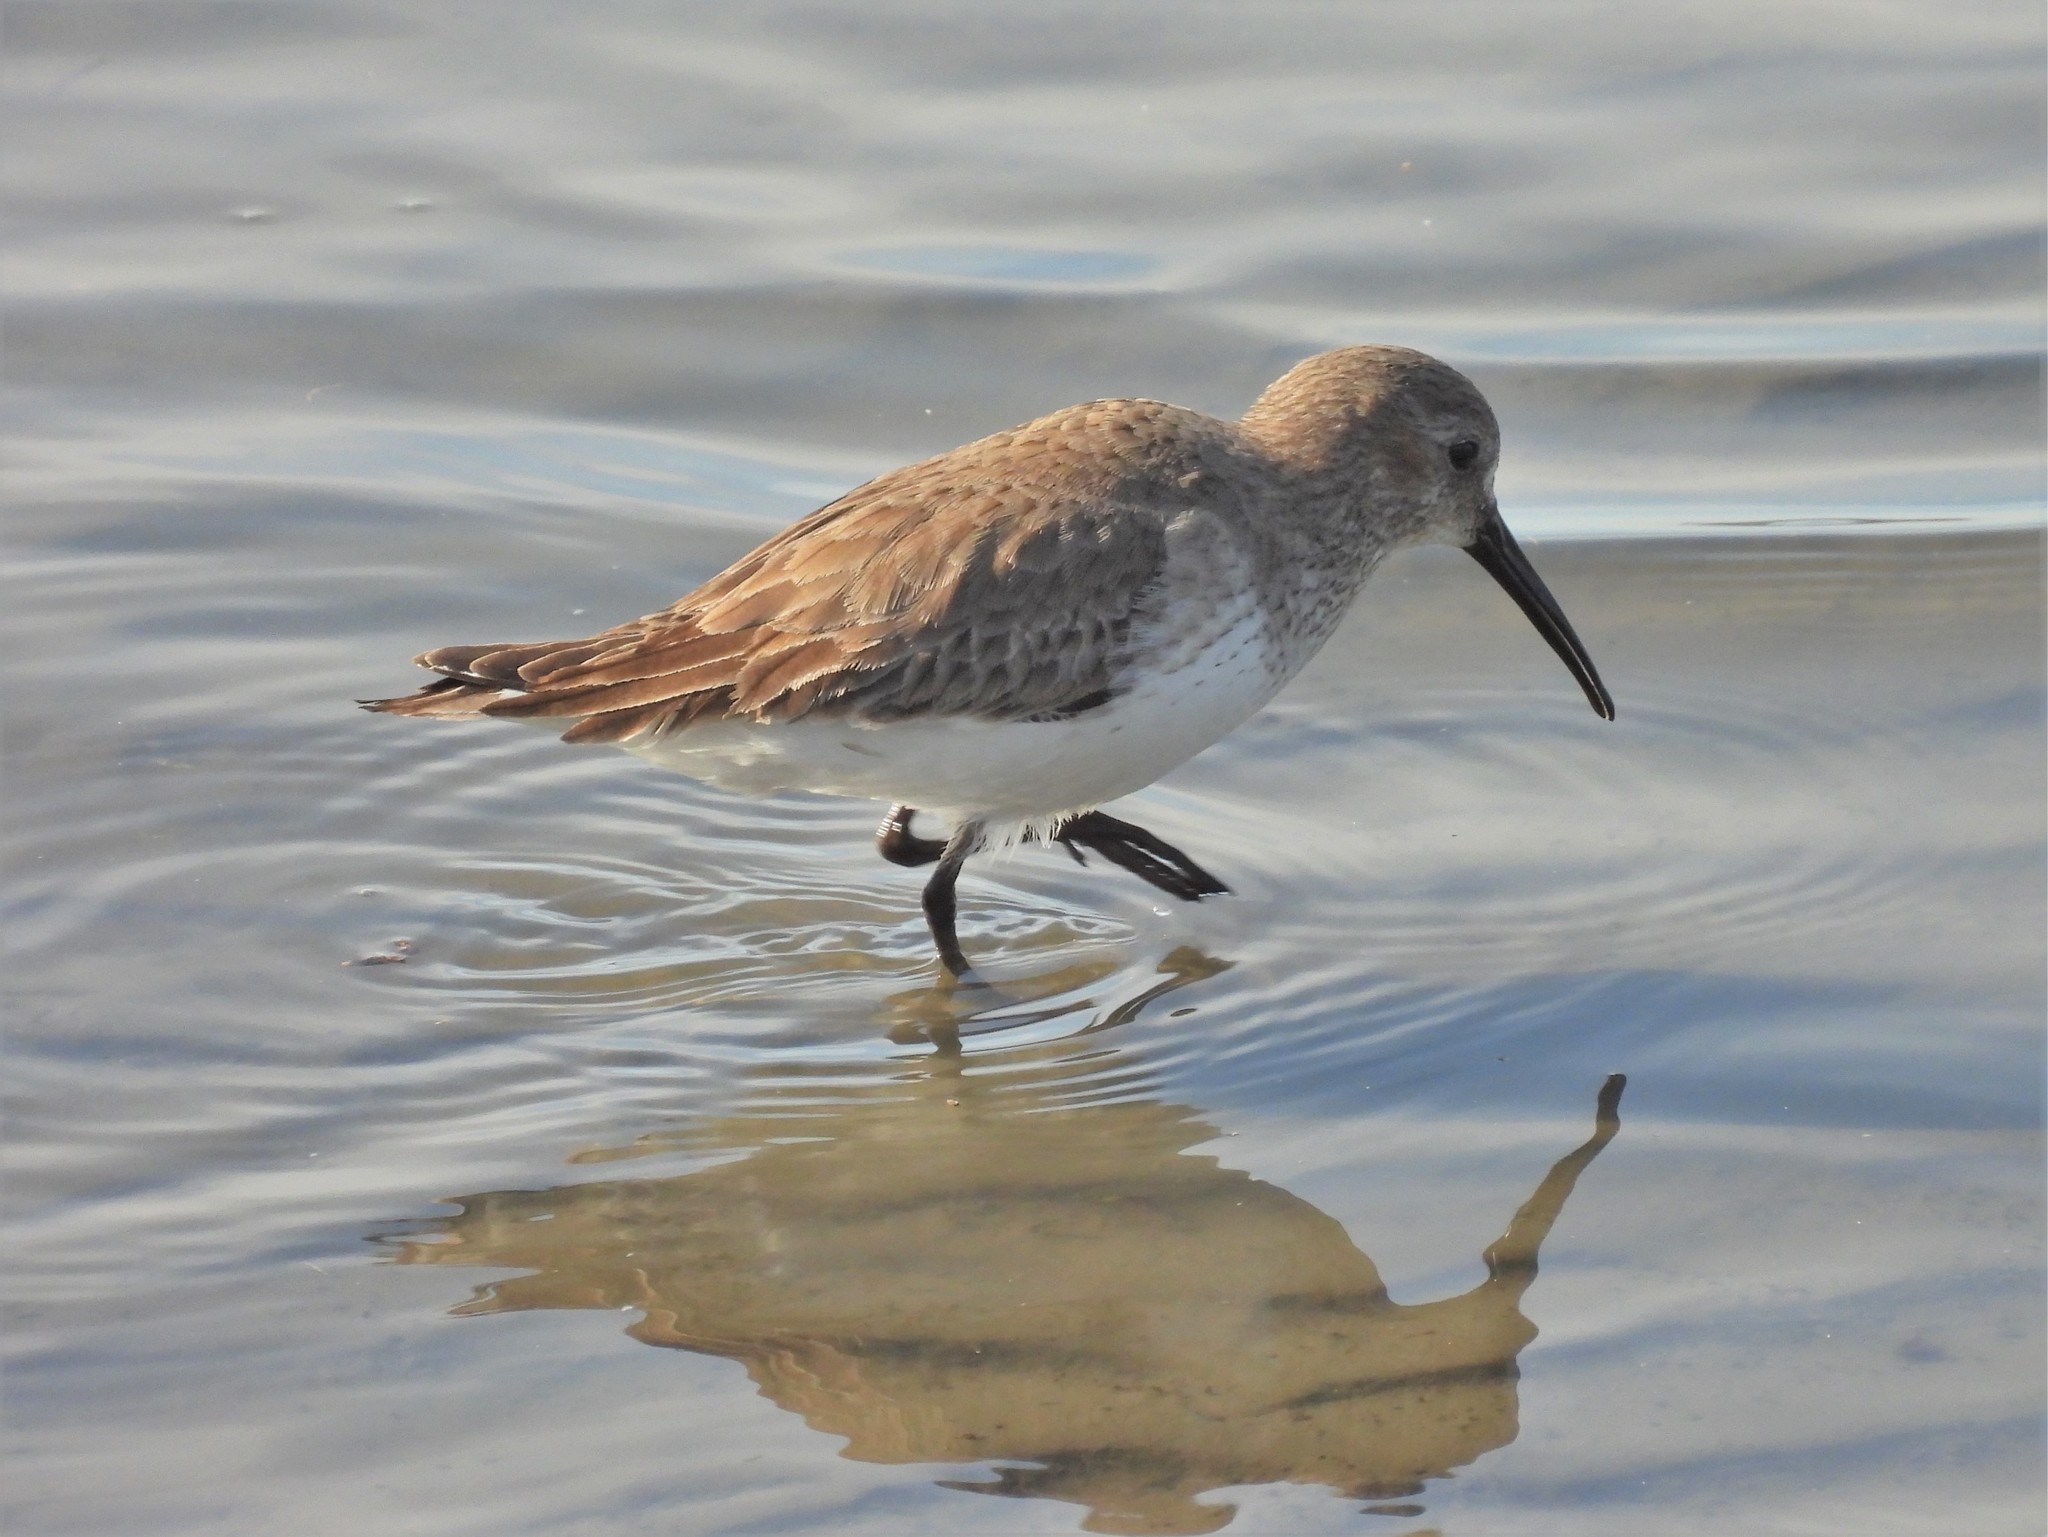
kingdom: Animalia
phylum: Chordata
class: Aves
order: Charadriiformes
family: Scolopacidae
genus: Calidris
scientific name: Calidris alpina
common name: Dunlin
